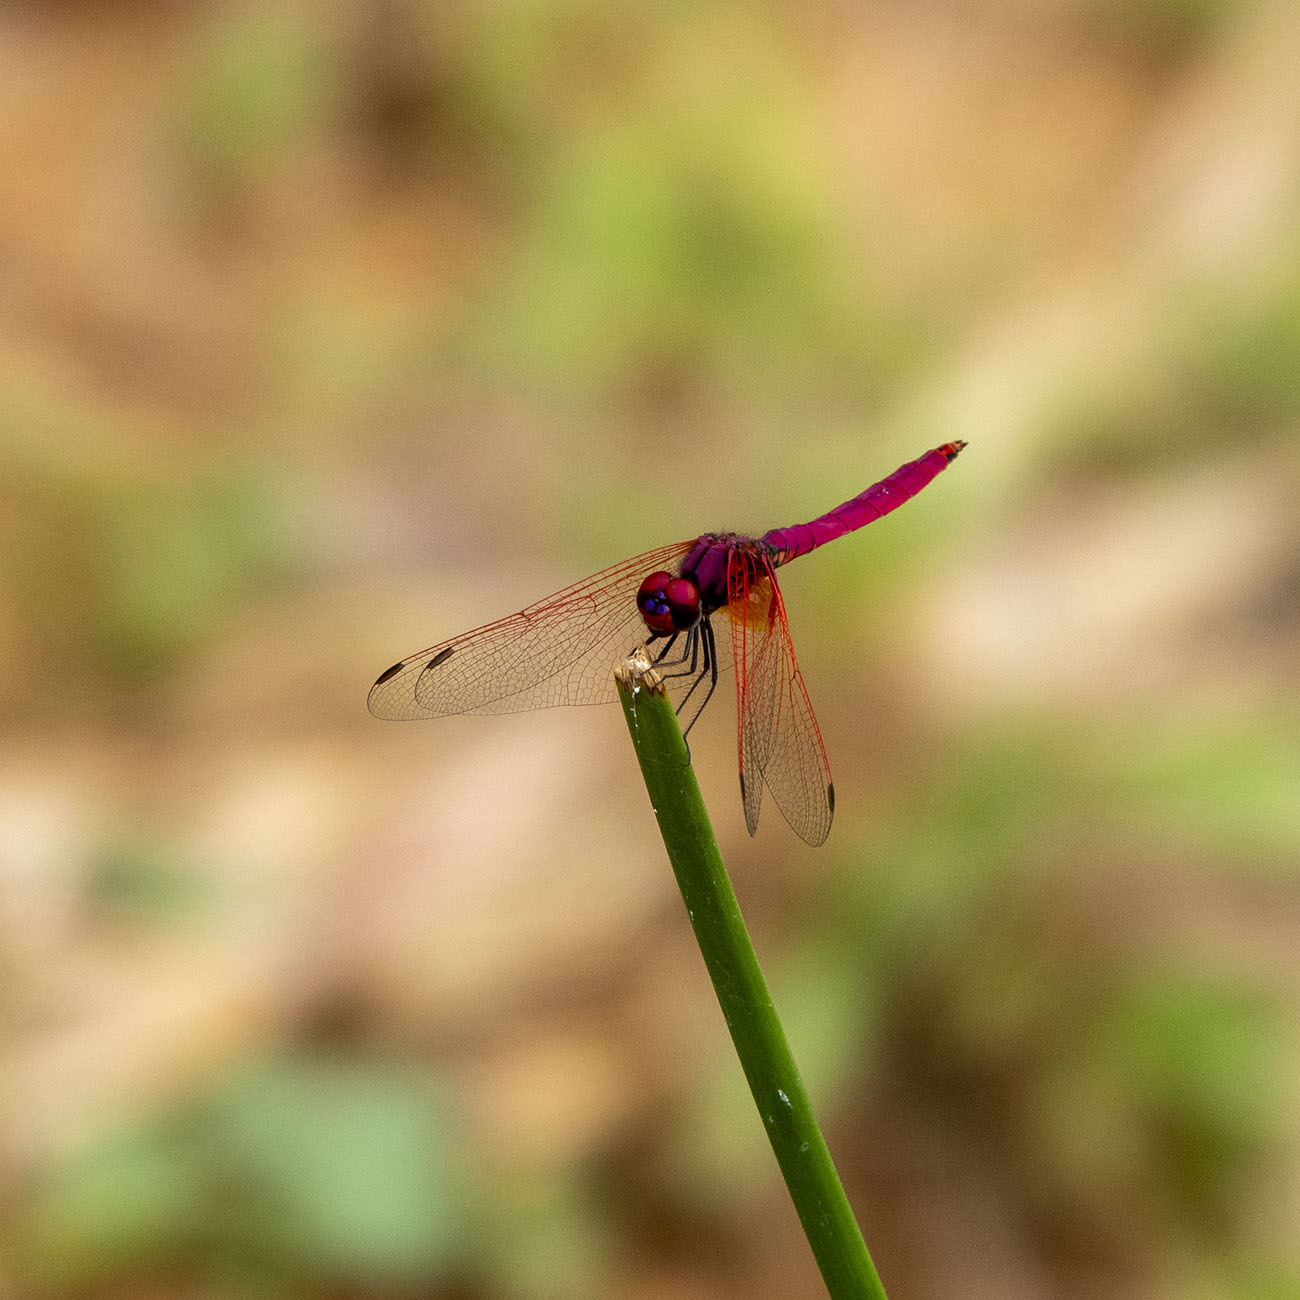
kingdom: Animalia
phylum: Arthropoda
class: Insecta
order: Odonata
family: Libellulidae
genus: Trithemis
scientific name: Trithemis aurora
